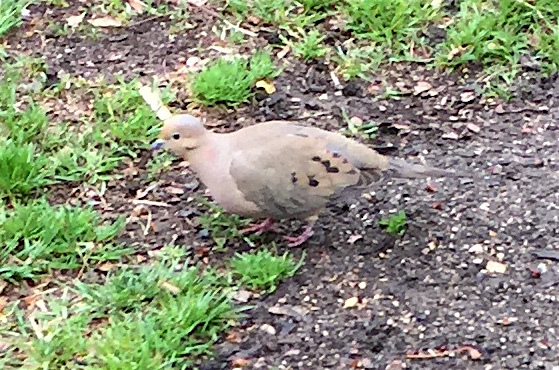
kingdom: Animalia
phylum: Chordata
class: Aves
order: Columbiformes
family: Columbidae
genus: Zenaida
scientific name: Zenaida macroura
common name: Mourning dove
